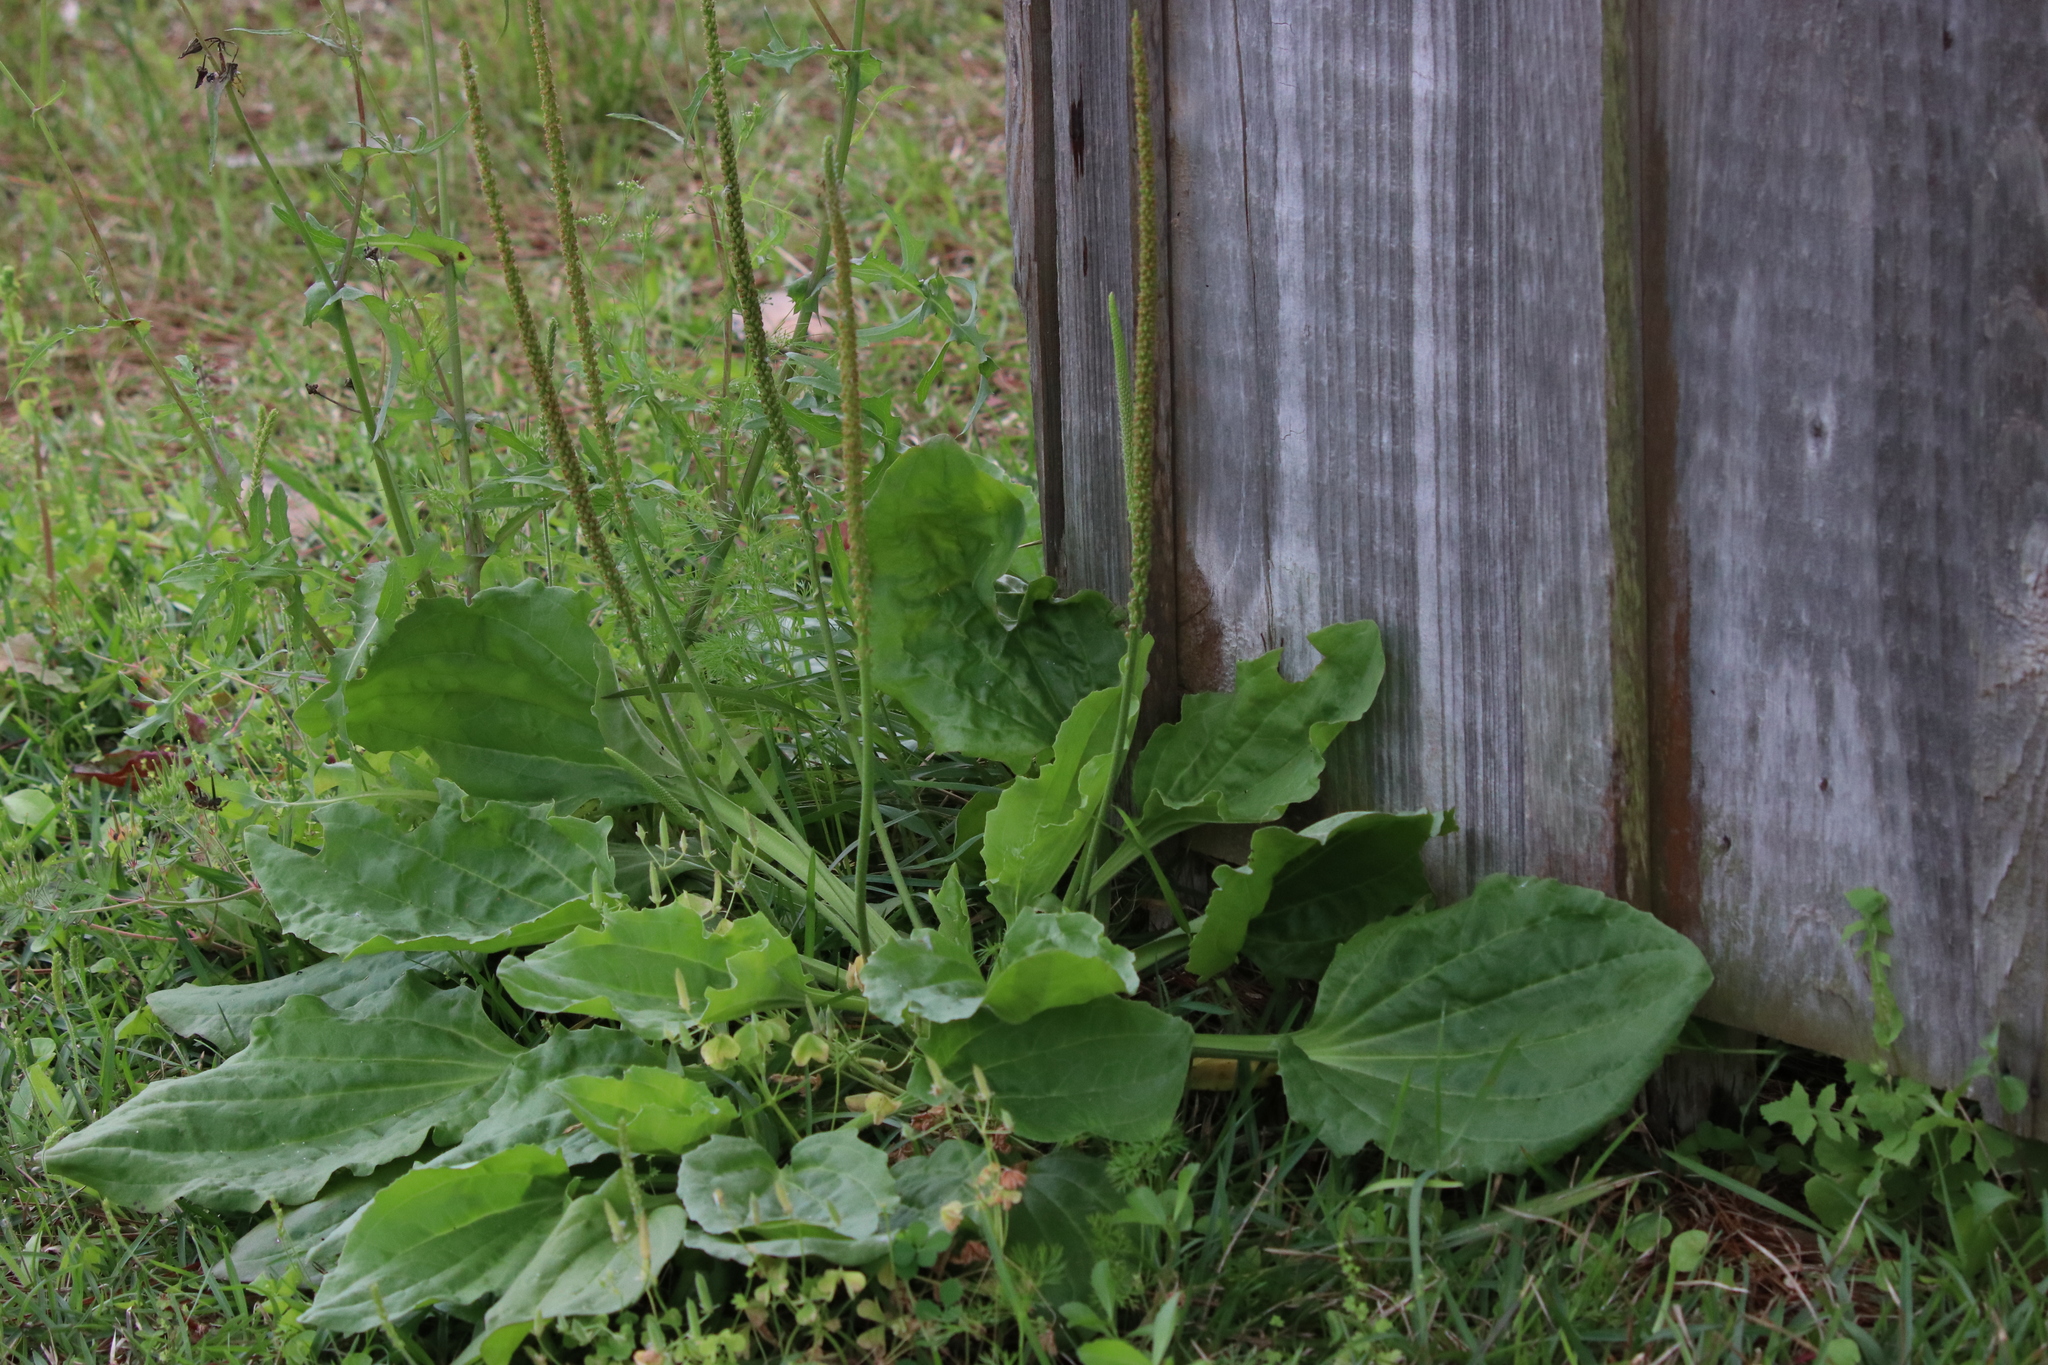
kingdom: Plantae
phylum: Tracheophyta
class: Magnoliopsida
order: Lamiales
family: Plantaginaceae
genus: Plantago
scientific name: Plantago major
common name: Common plantain
